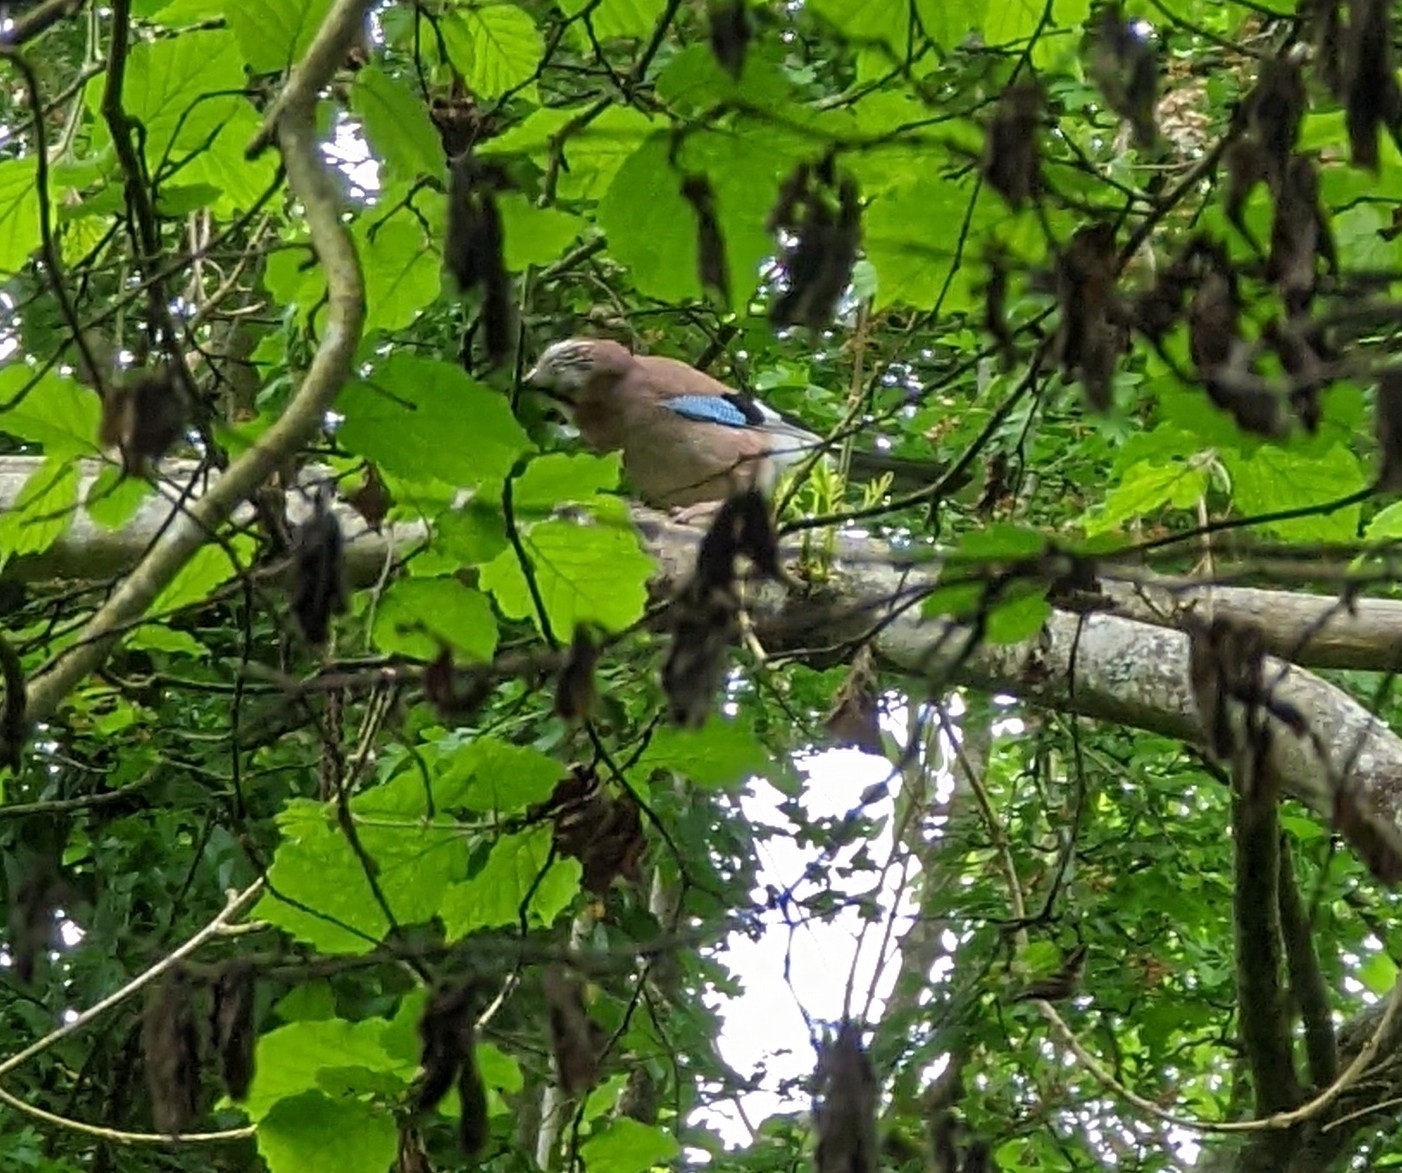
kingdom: Animalia
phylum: Chordata
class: Aves
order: Passeriformes
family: Corvidae
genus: Garrulus
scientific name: Garrulus glandarius
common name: Eurasian jay
